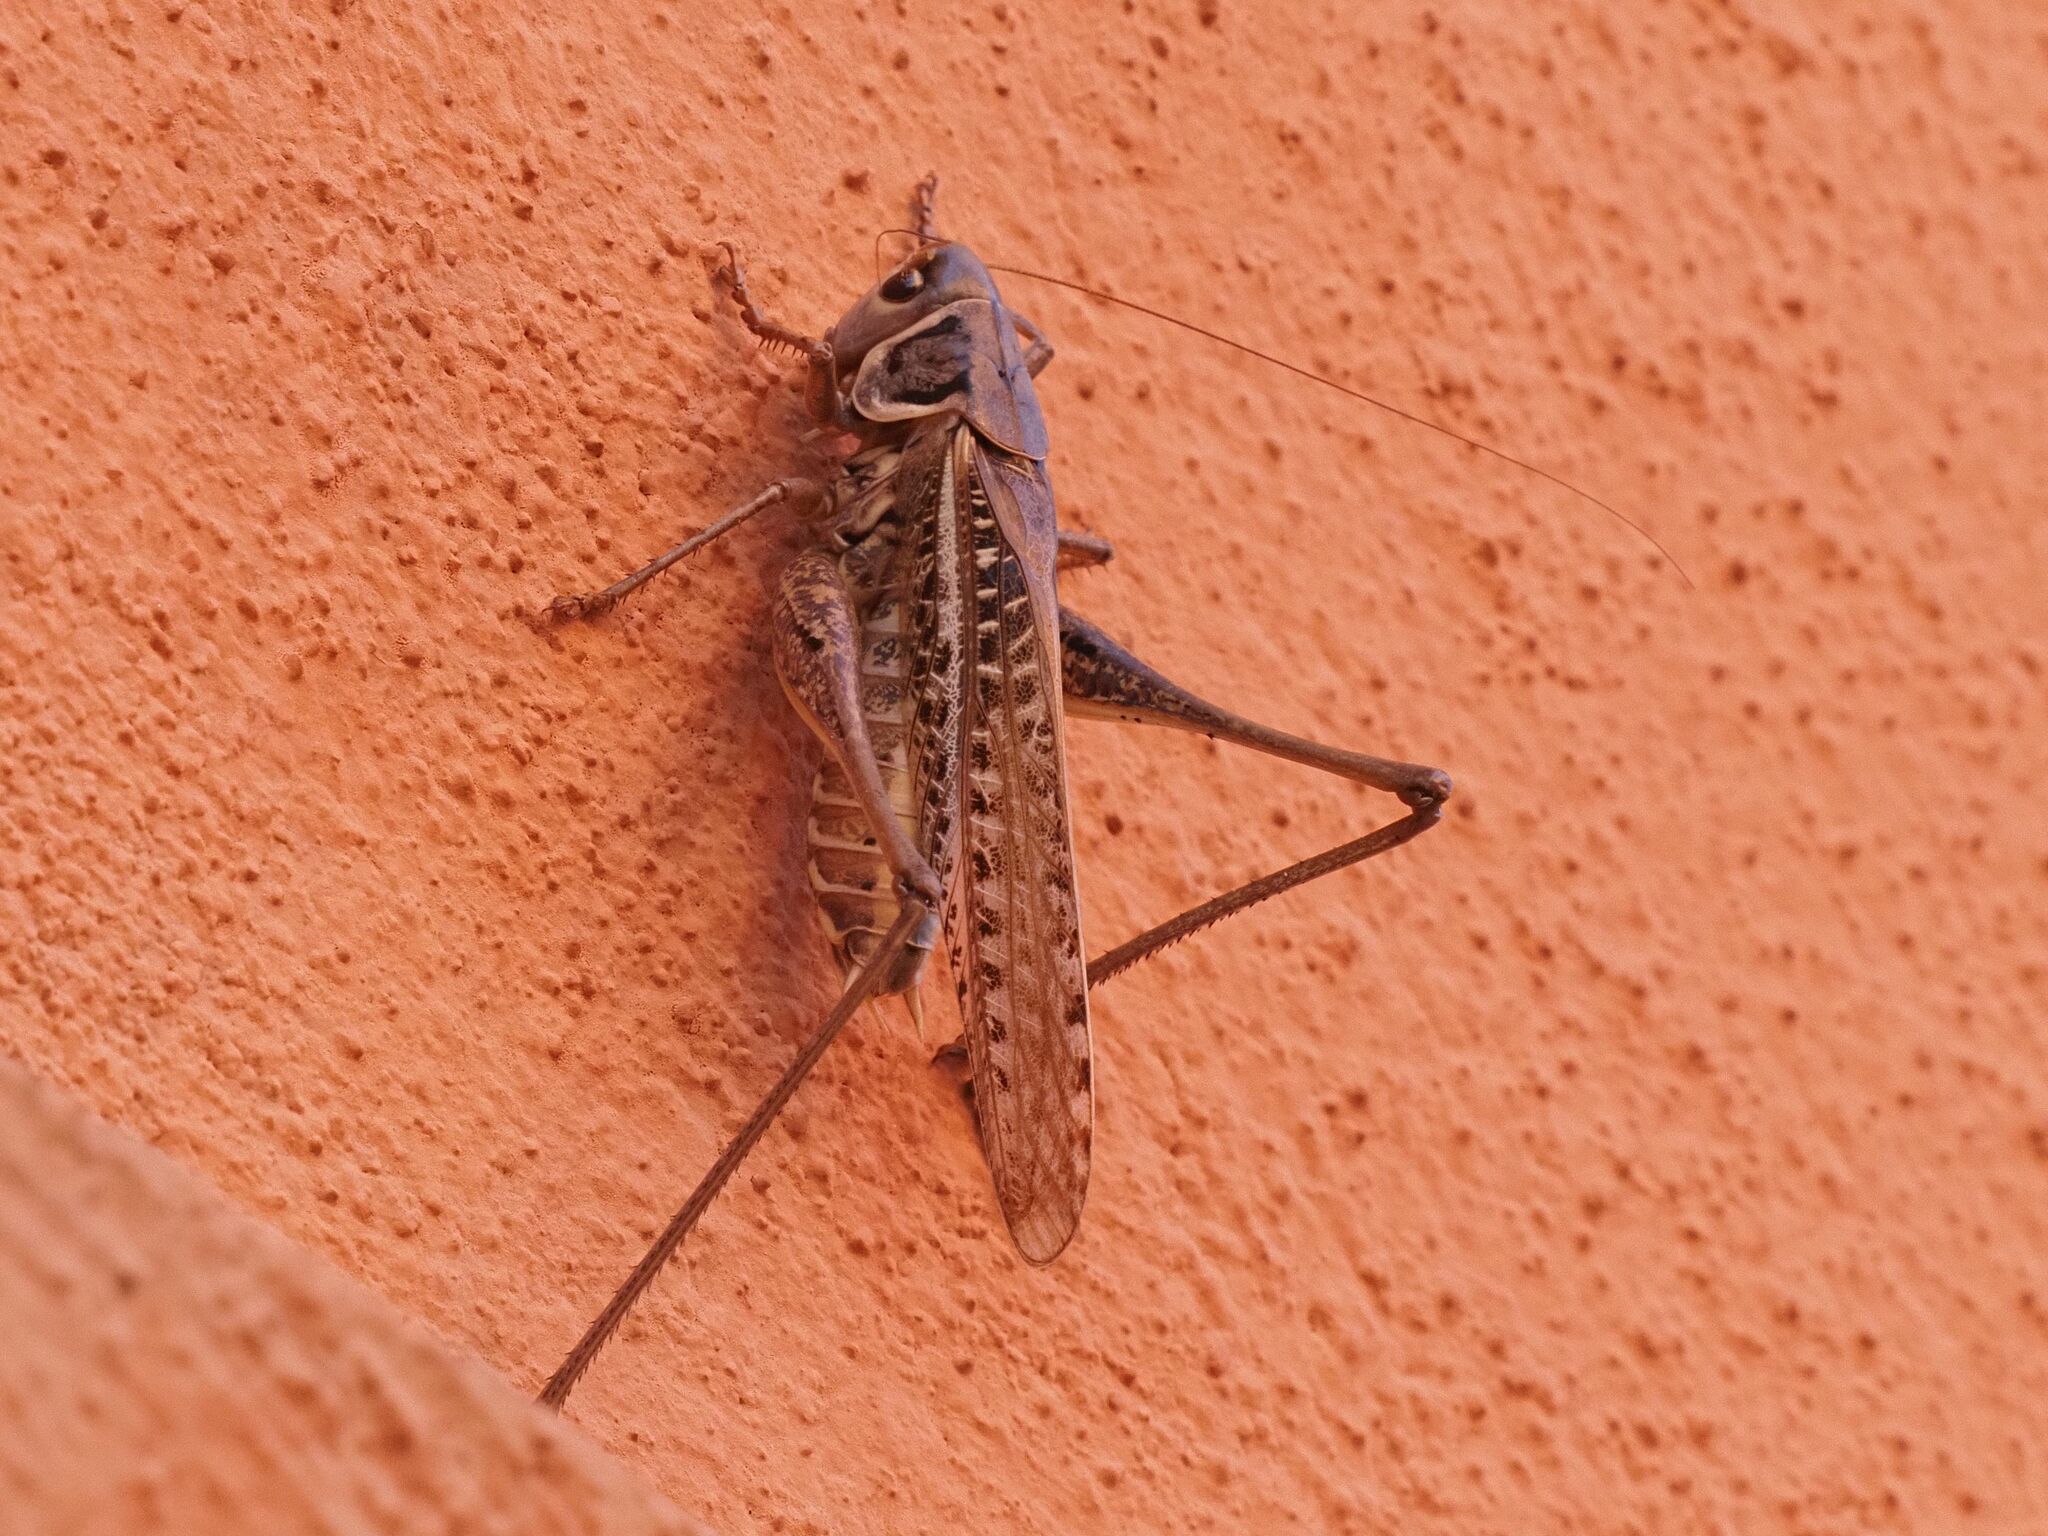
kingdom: Animalia
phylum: Arthropoda
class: Insecta
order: Orthoptera
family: Tettigoniidae
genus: Decticus
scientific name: Decticus albifrons
